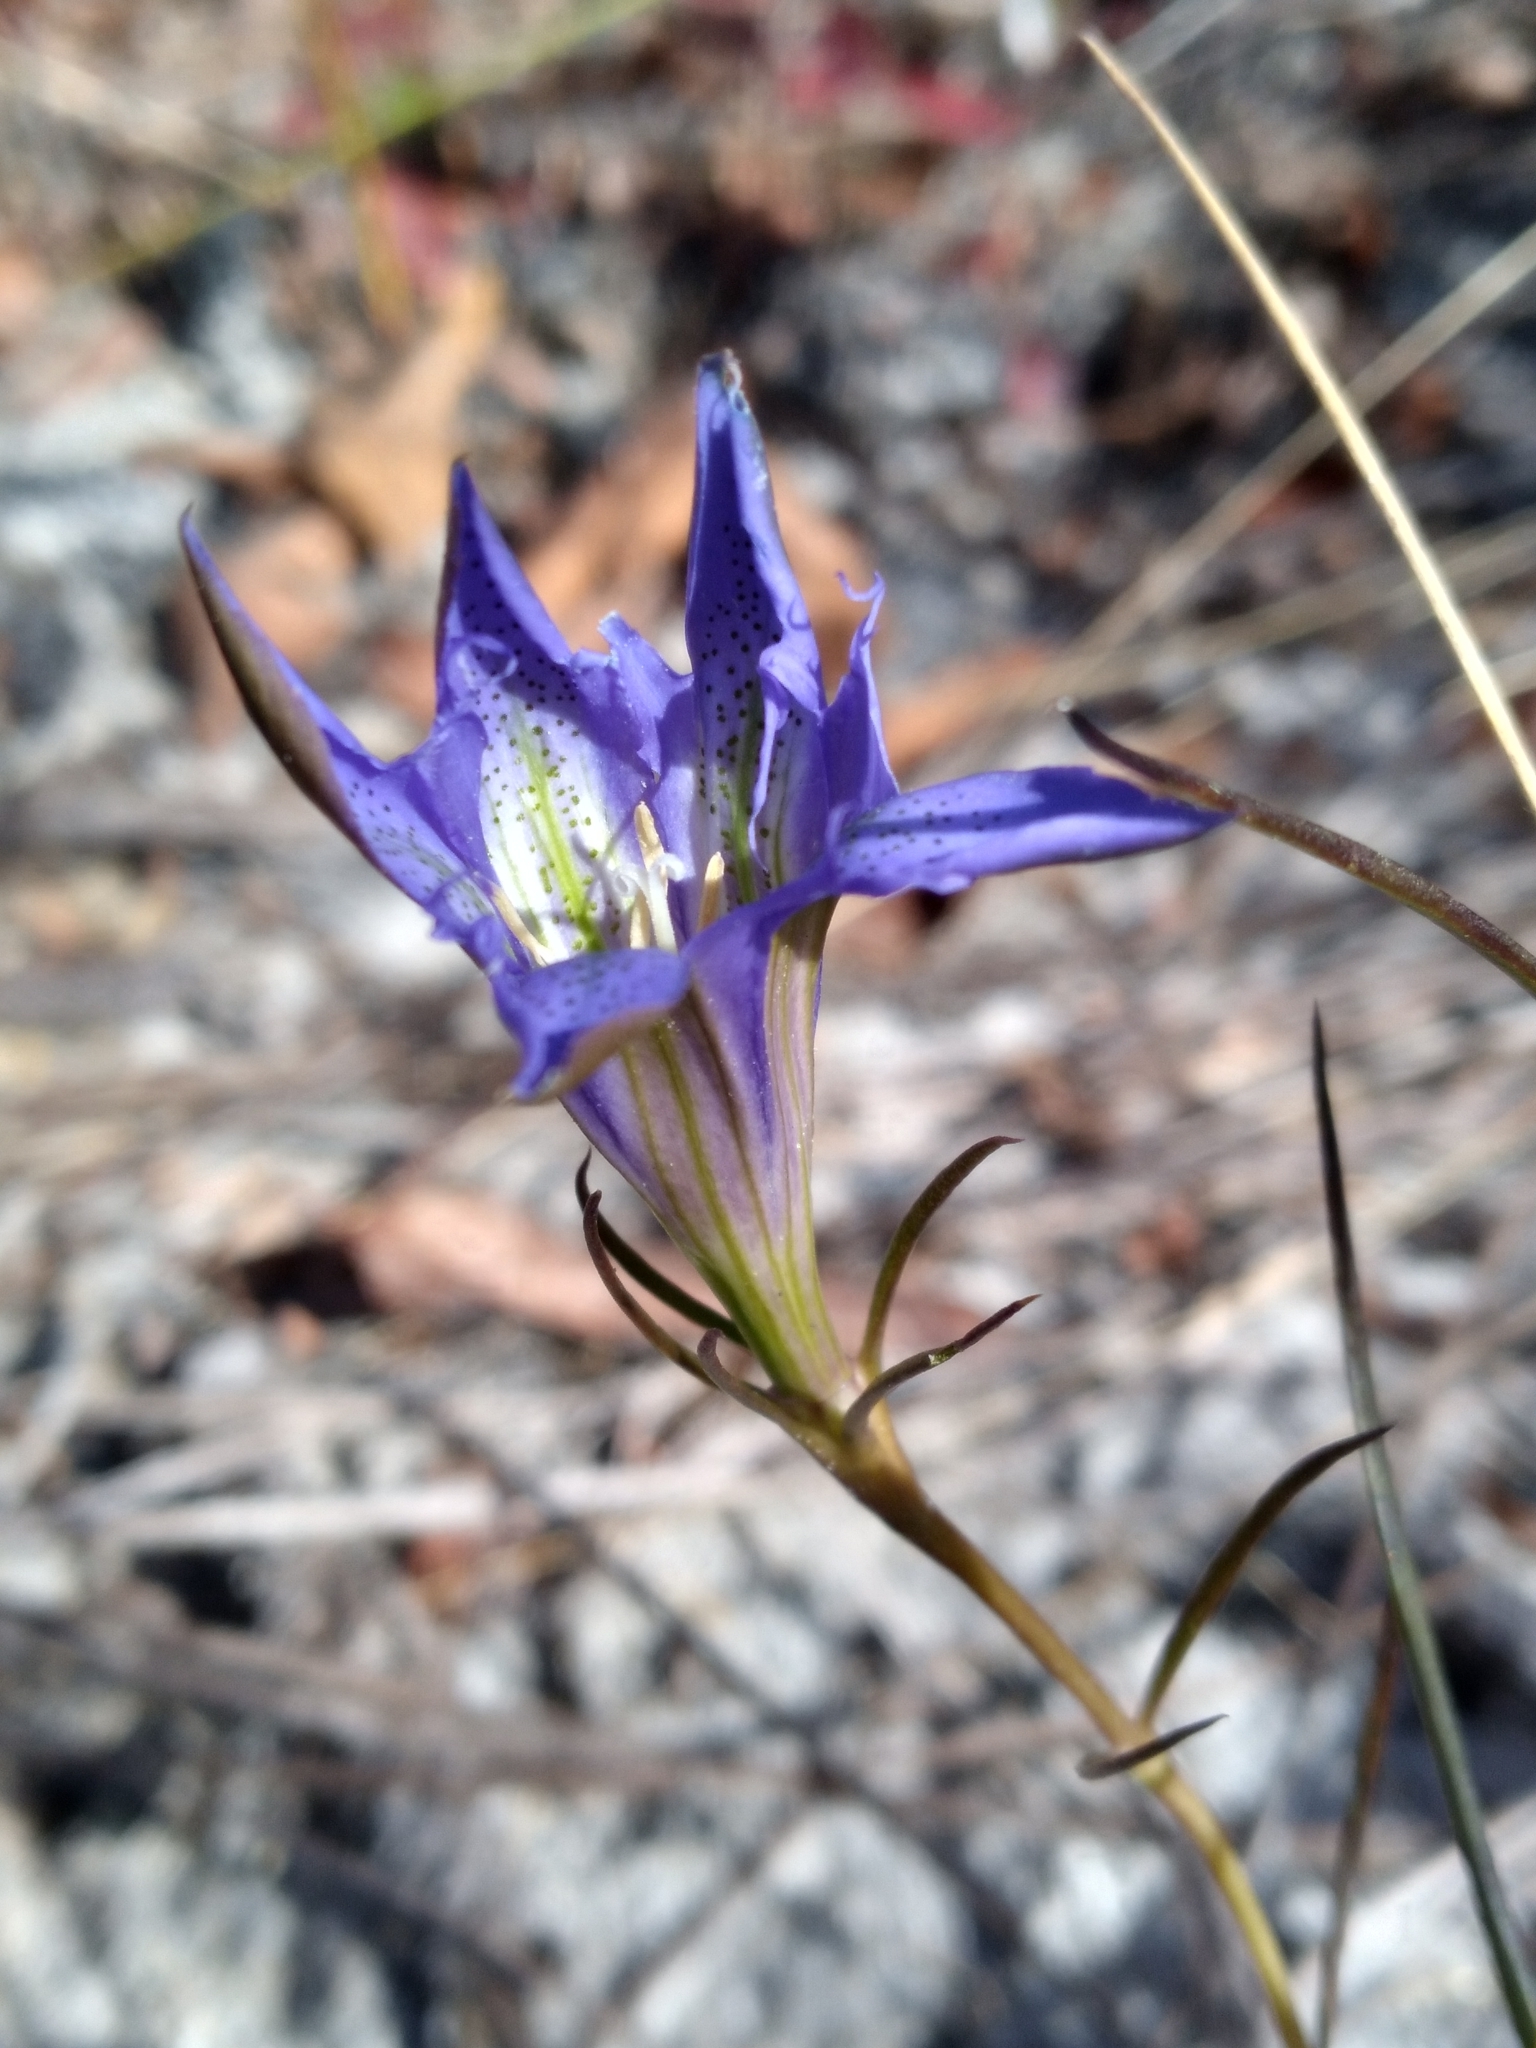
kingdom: Plantae
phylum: Tracheophyta
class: Magnoliopsida
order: Gentianales
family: Gentianaceae
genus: Gentiana
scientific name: Gentiana autumnalis
